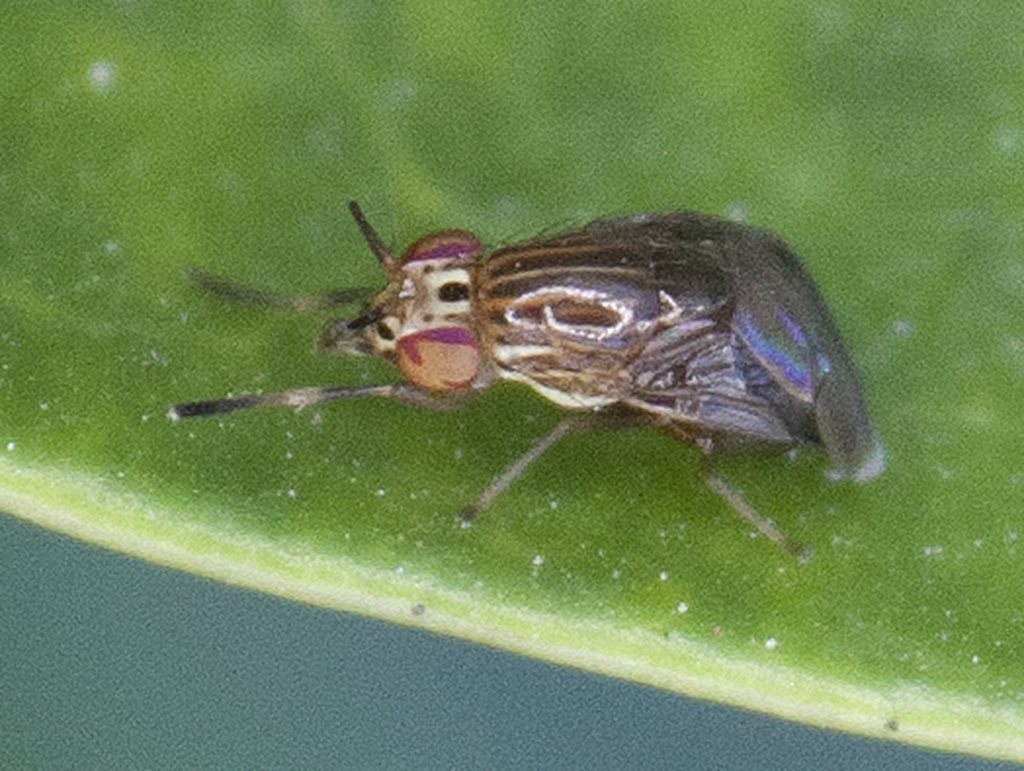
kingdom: Animalia
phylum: Arthropoda
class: Insecta
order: Diptera
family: Lauxaniidae
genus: Steganopsis
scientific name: Steganopsis melanogaster
